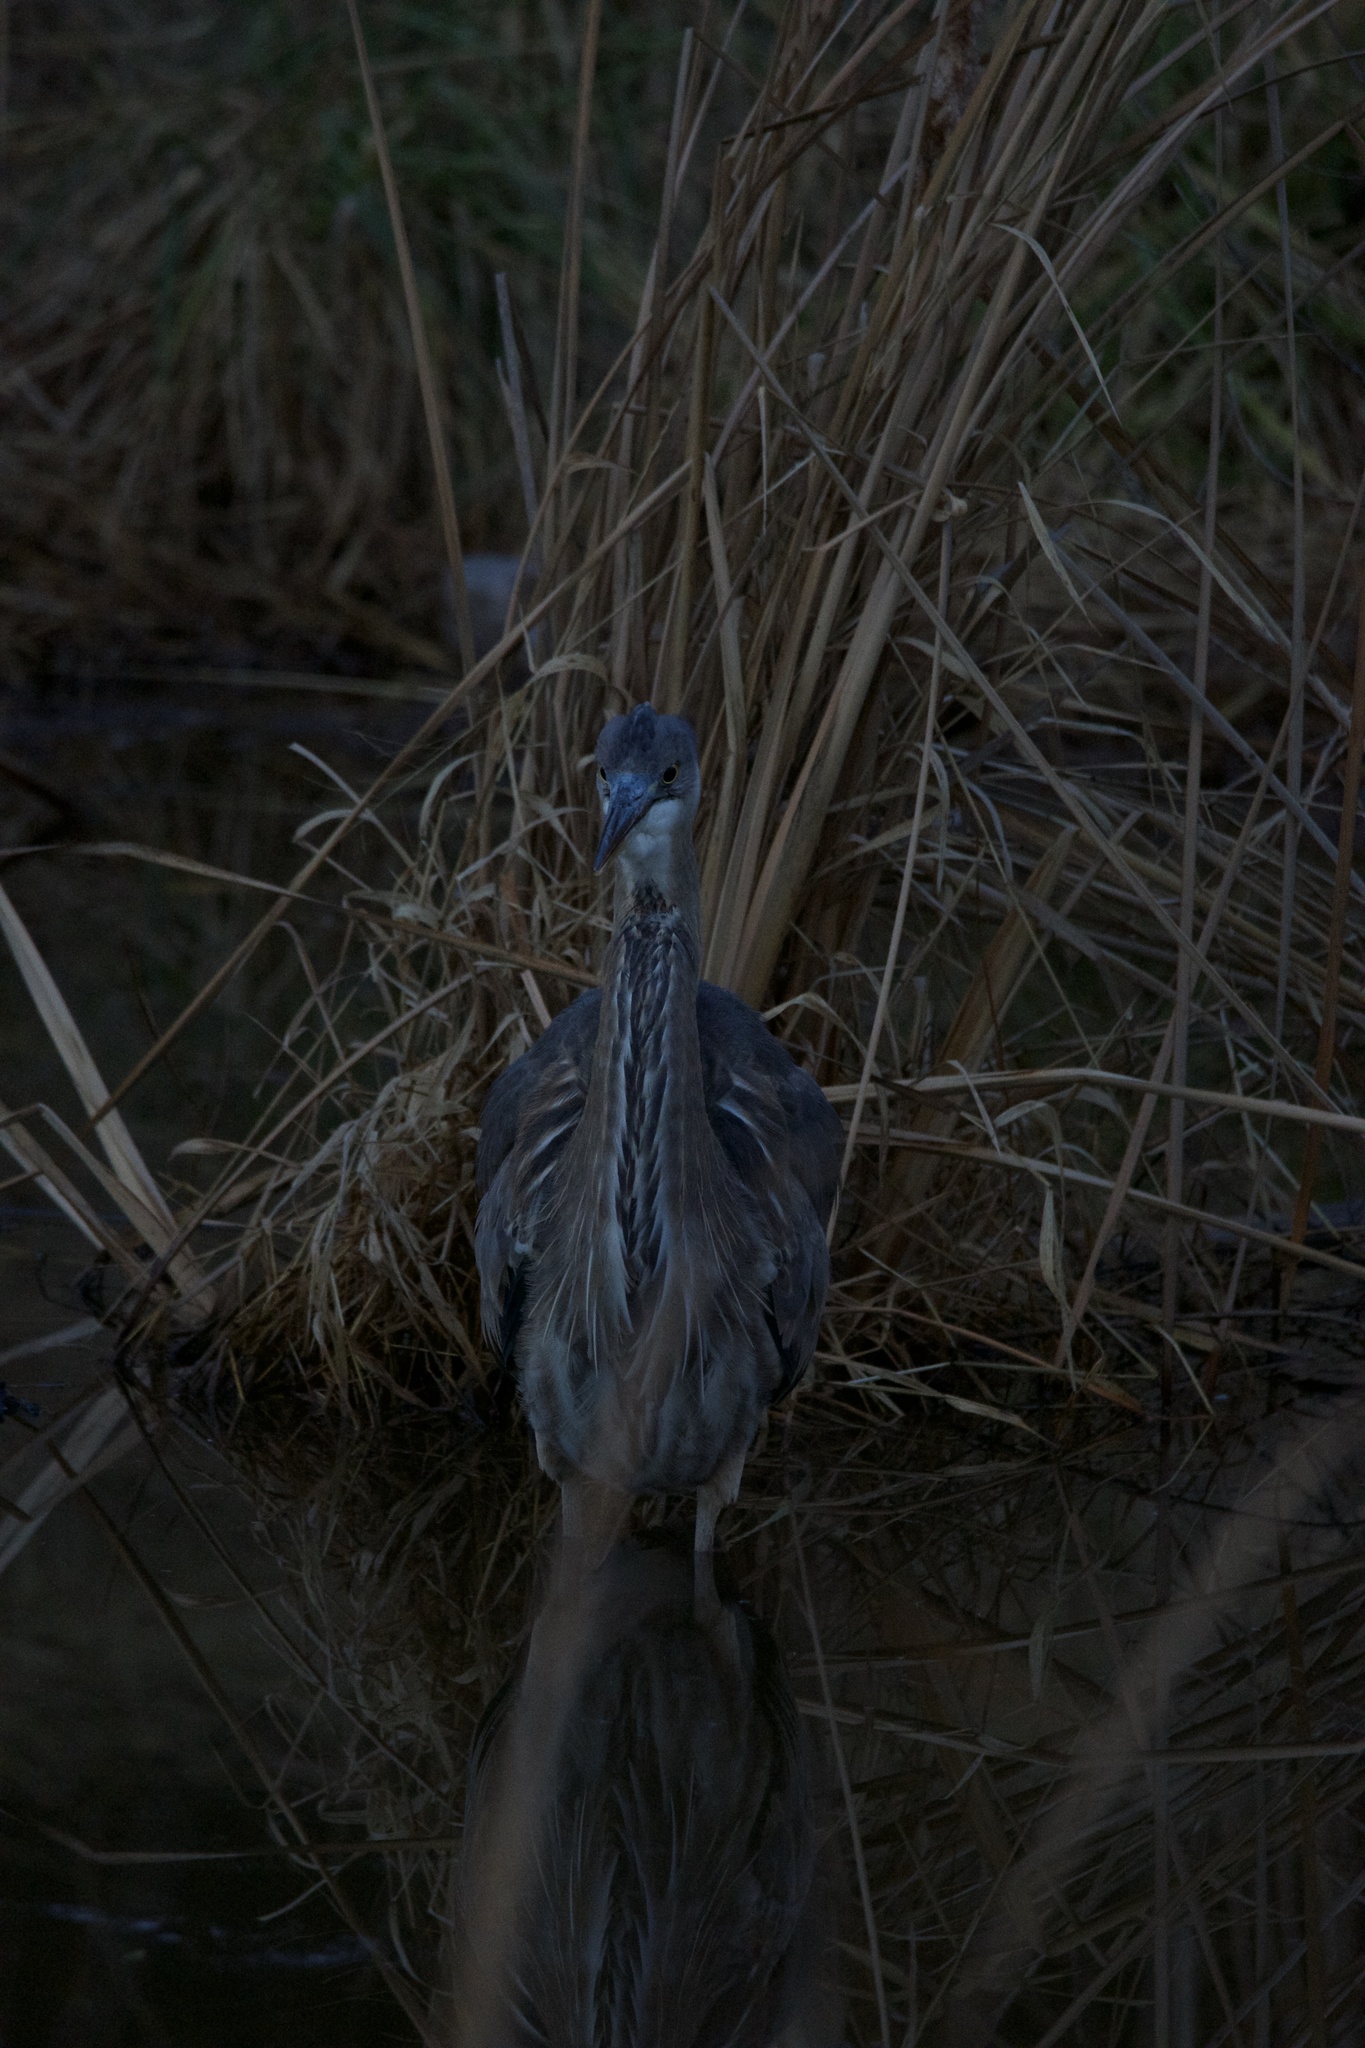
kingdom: Animalia
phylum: Chordata
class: Aves
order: Pelecaniformes
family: Ardeidae
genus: Ardea
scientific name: Ardea herodias
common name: Great blue heron
